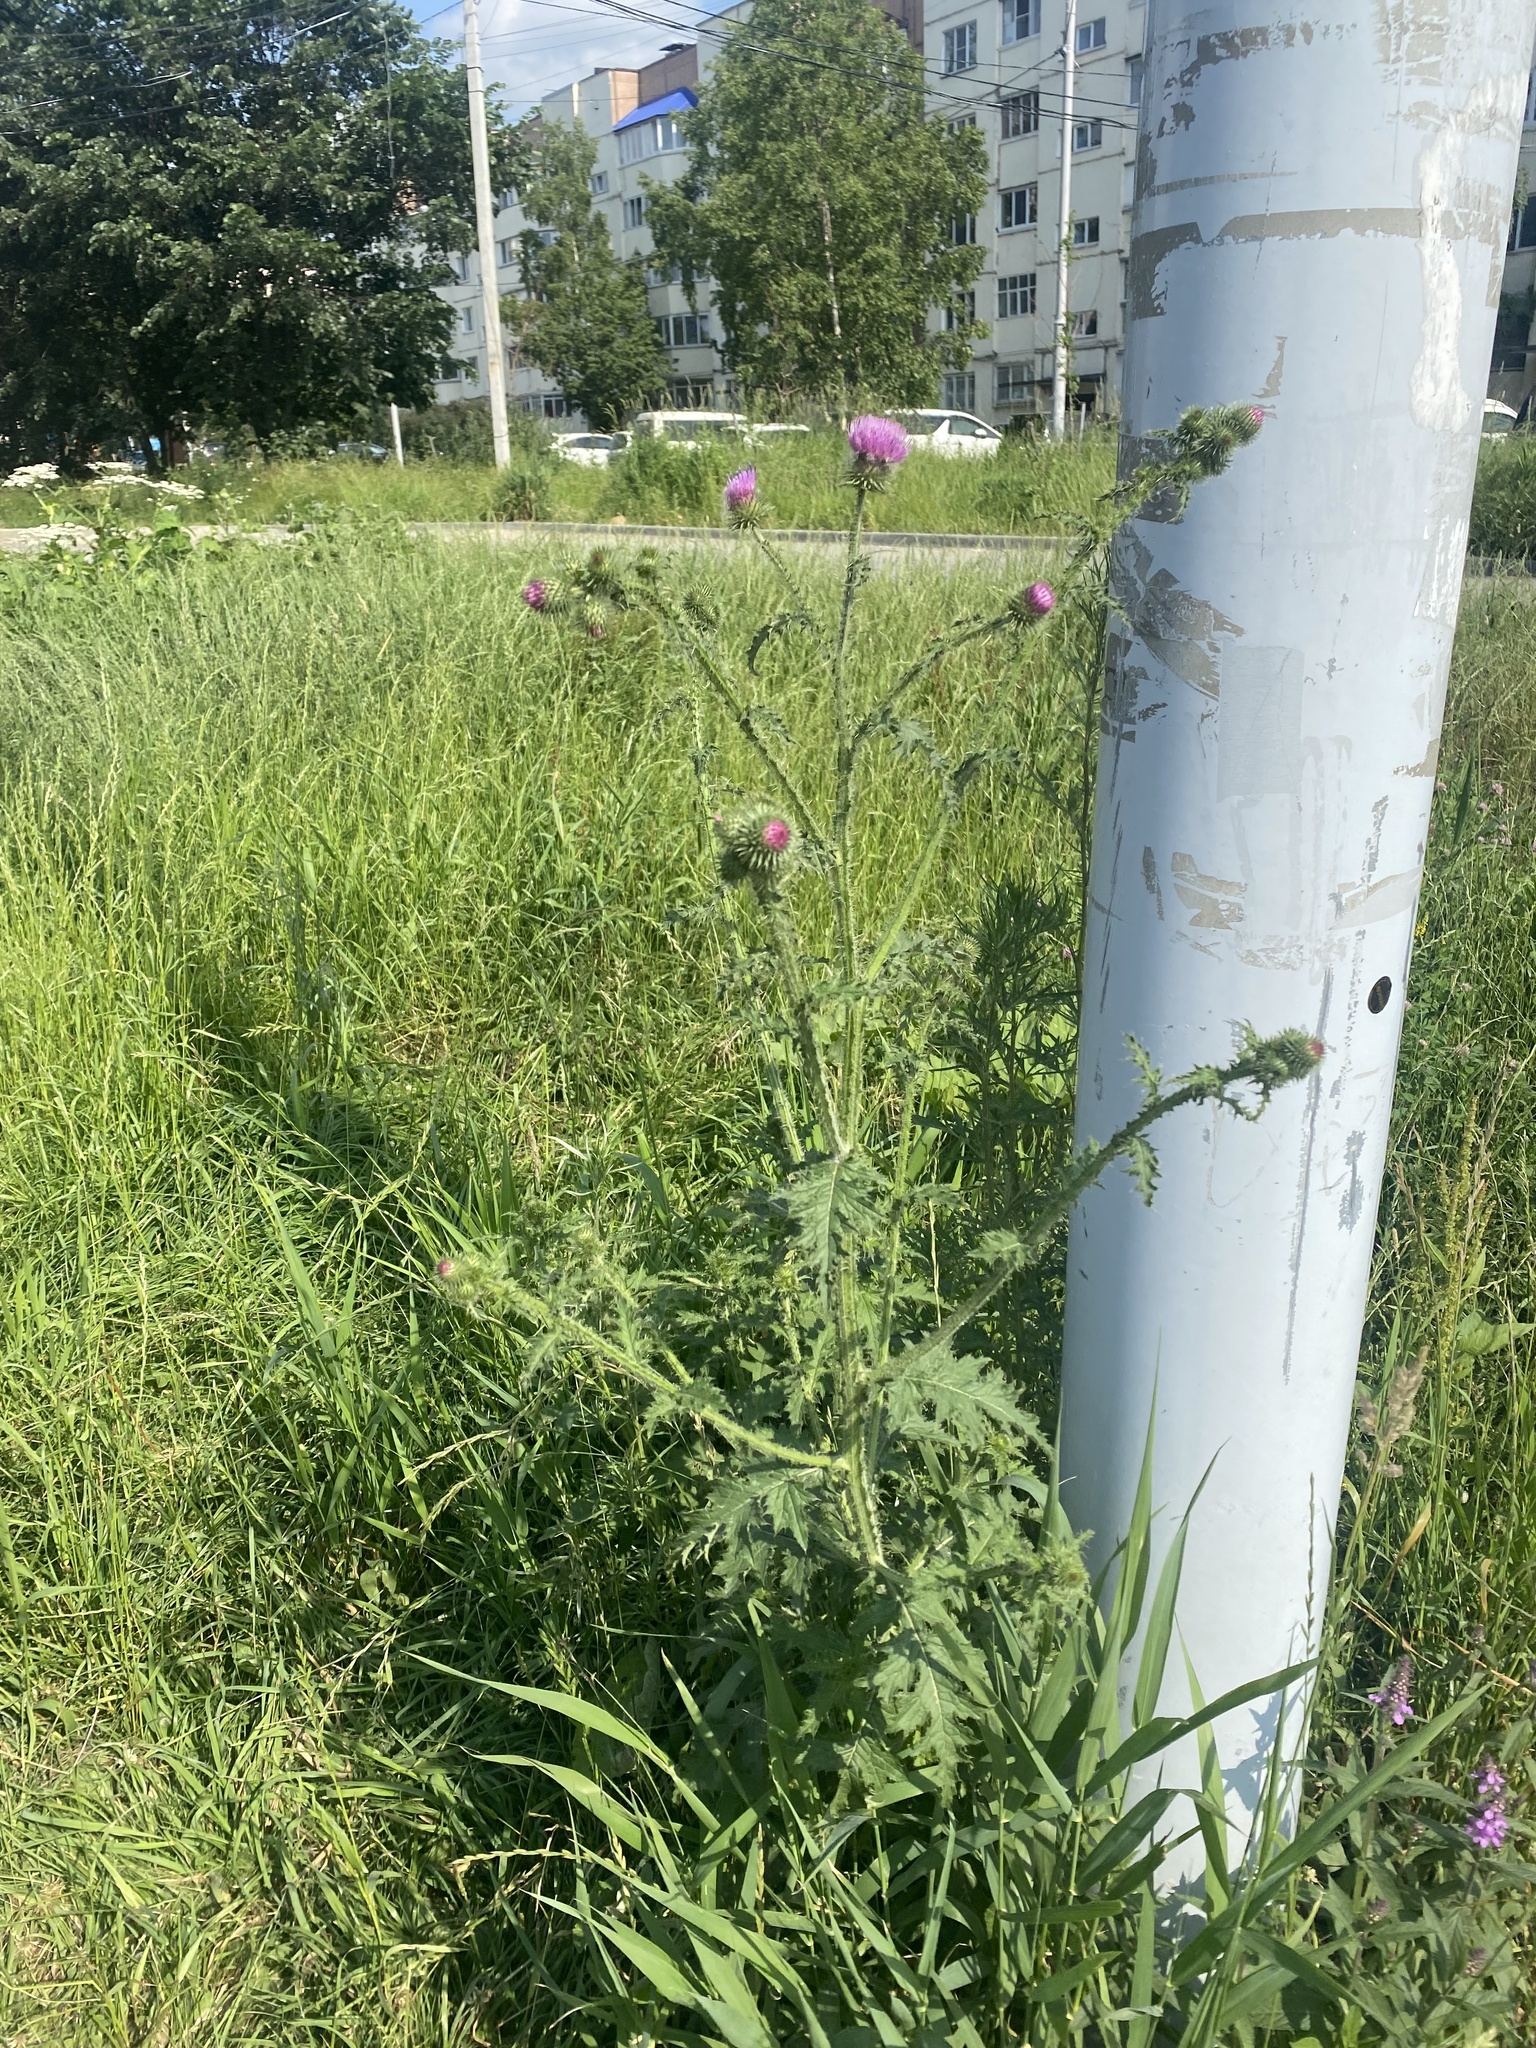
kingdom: Plantae
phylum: Tracheophyta
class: Magnoliopsida
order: Asterales
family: Asteraceae
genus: Carduus
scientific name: Carduus crispus
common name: Welted thistle
